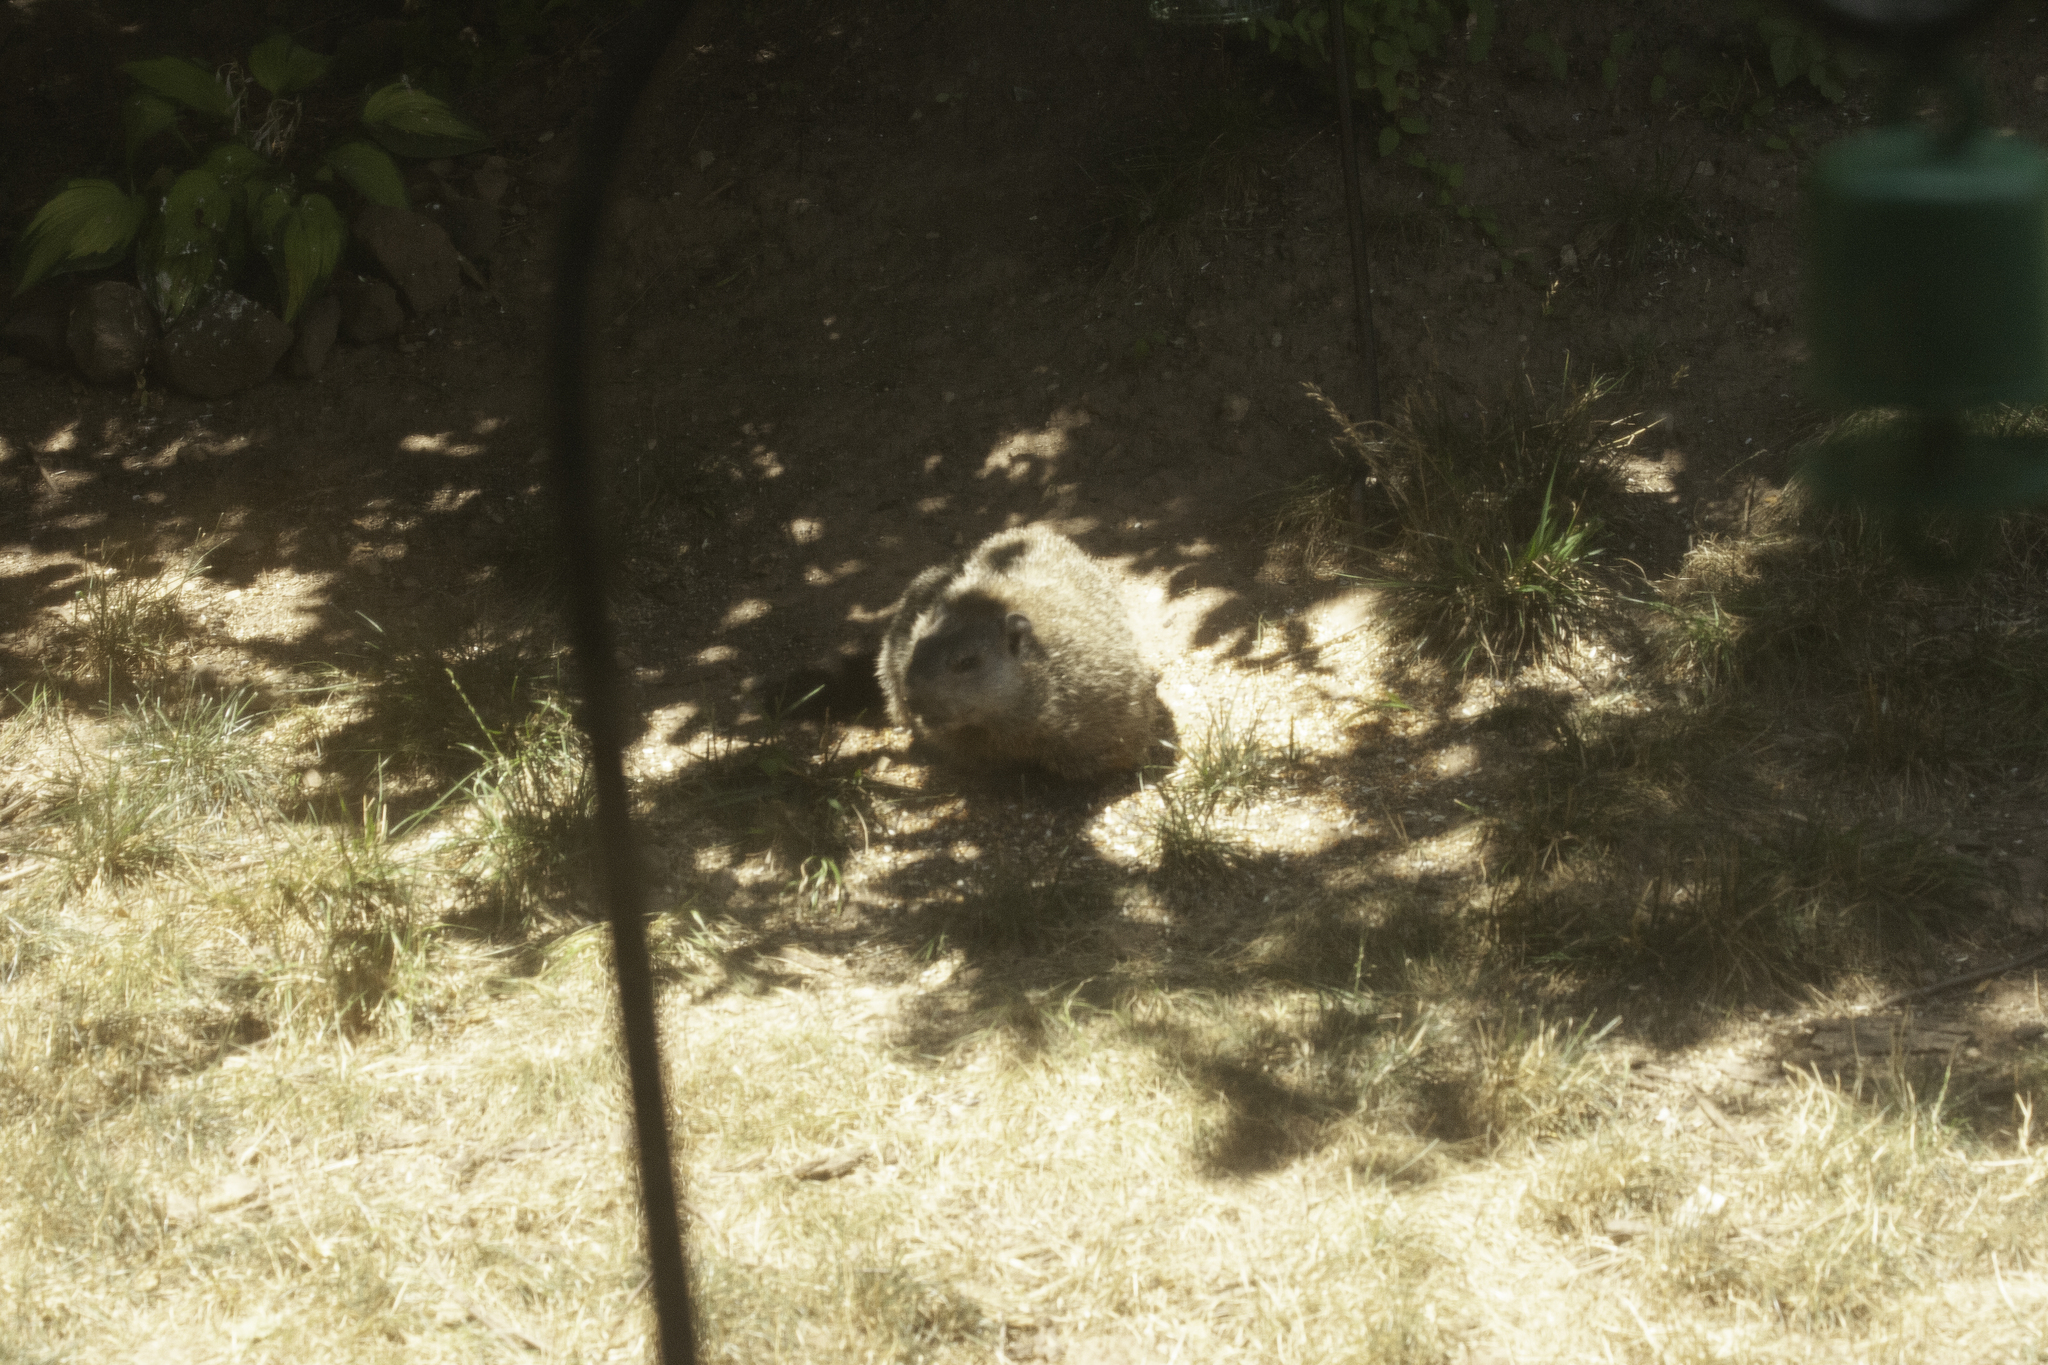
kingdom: Animalia
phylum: Chordata
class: Mammalia
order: Rodentia
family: Sciuridae
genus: Marmota
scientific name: Marmota monax
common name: Groundhog
